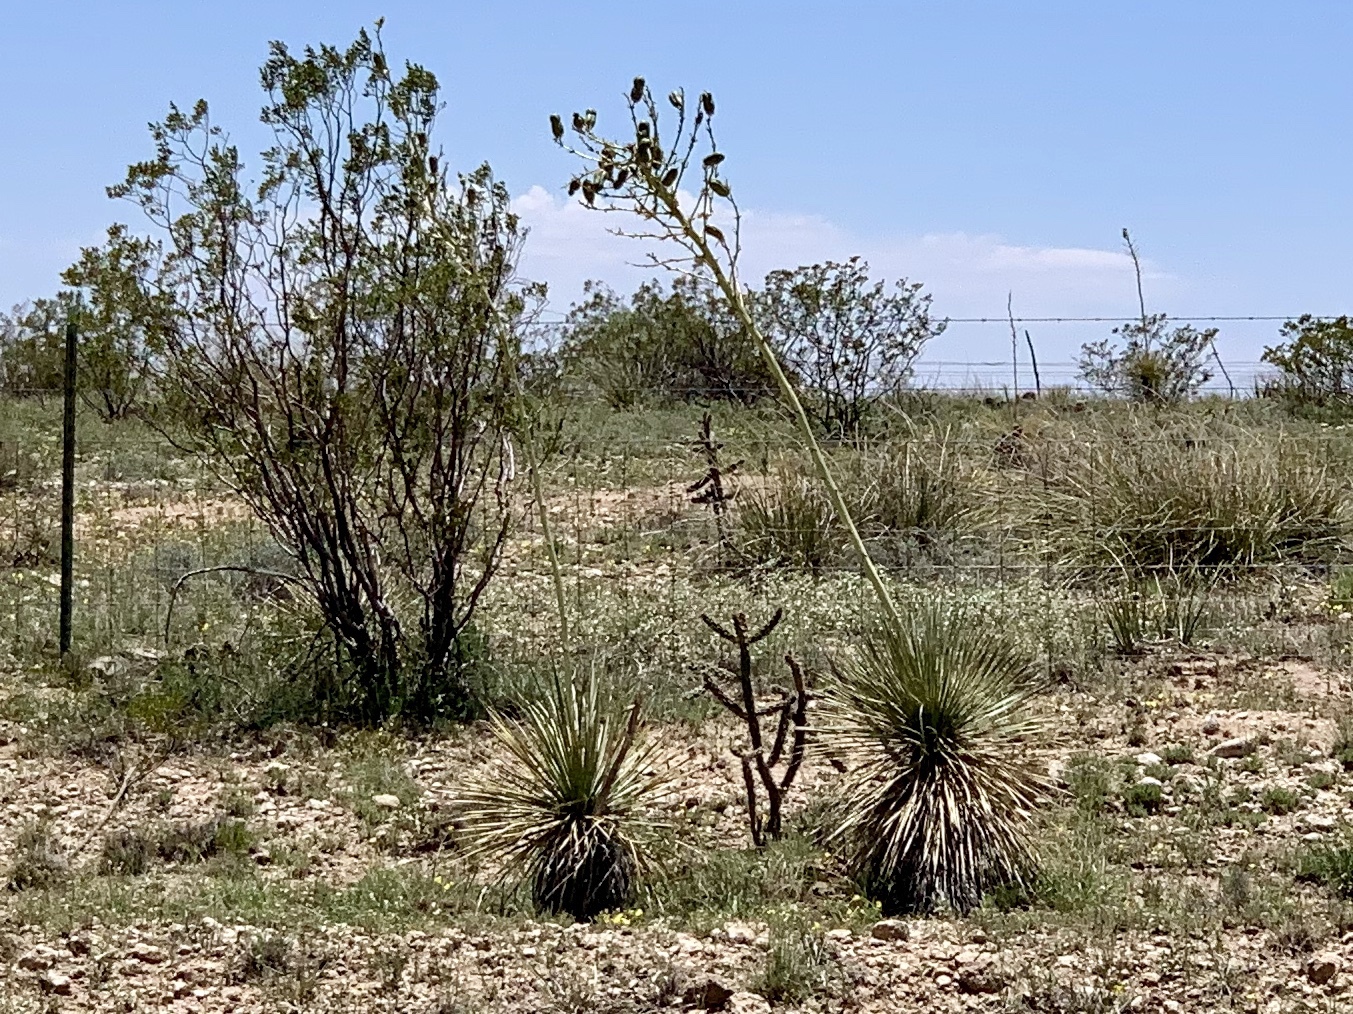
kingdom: Plantae
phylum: Tracheophyta
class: Liliopsida
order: Asparagales
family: Asparagaceae
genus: Yucca
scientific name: Yucca elata
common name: Palmella
